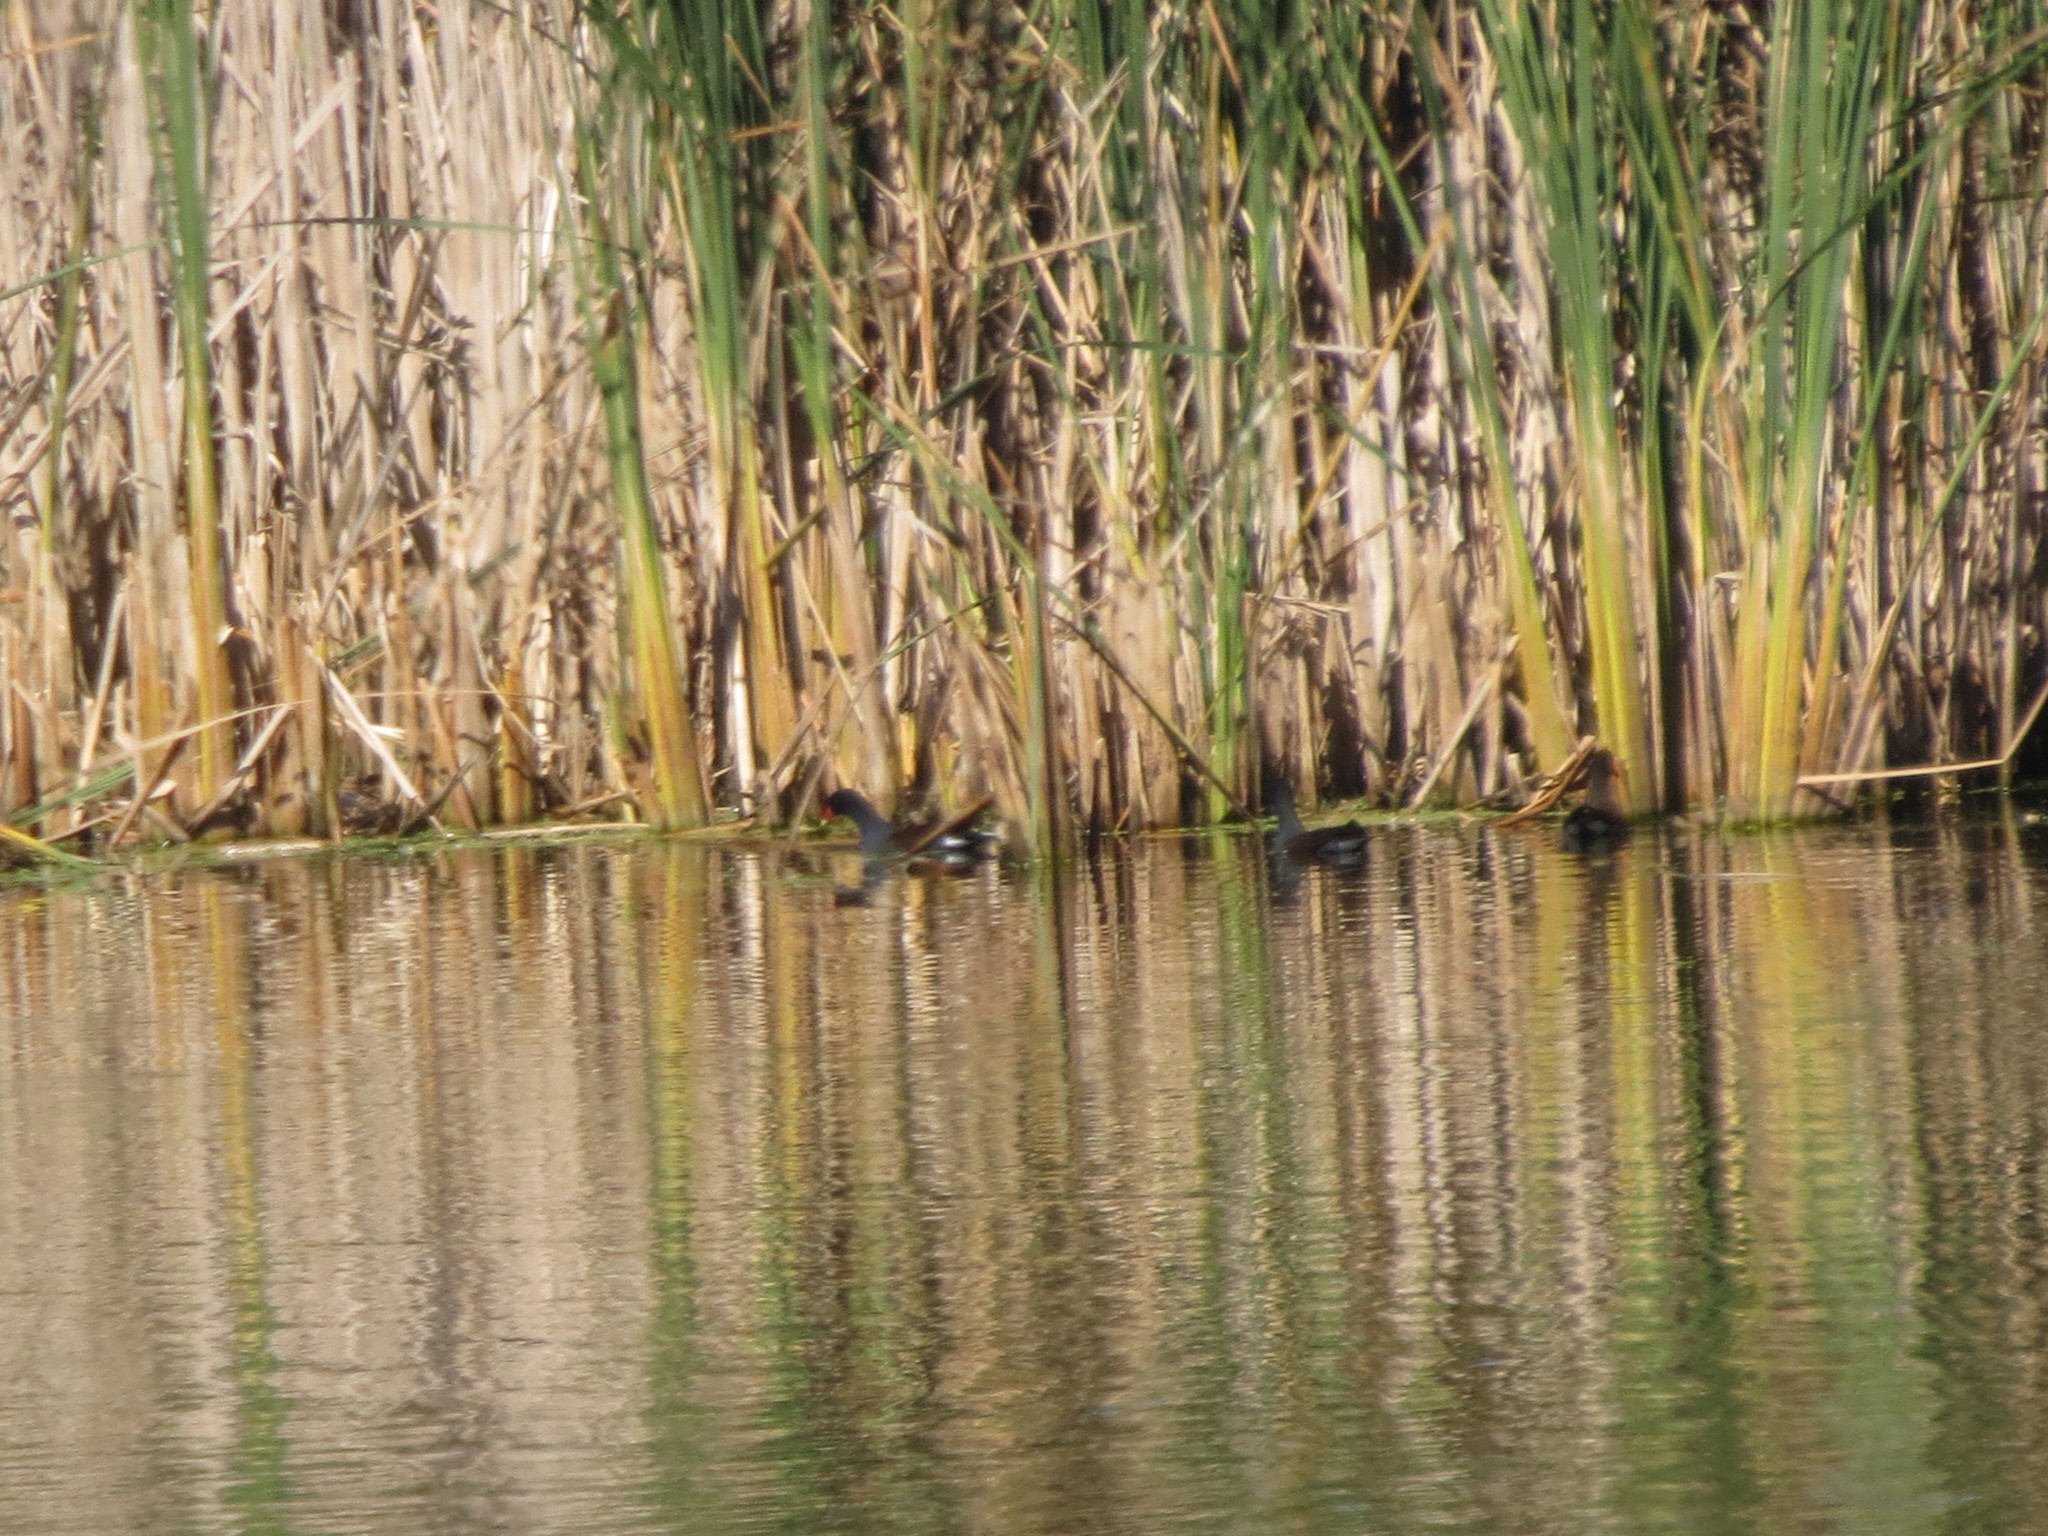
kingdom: Animalia
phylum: Chordata
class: Aves
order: Gruiformes
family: Rallidae
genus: Gallinula
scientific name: Gallinula chloropus
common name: Common moorhen
